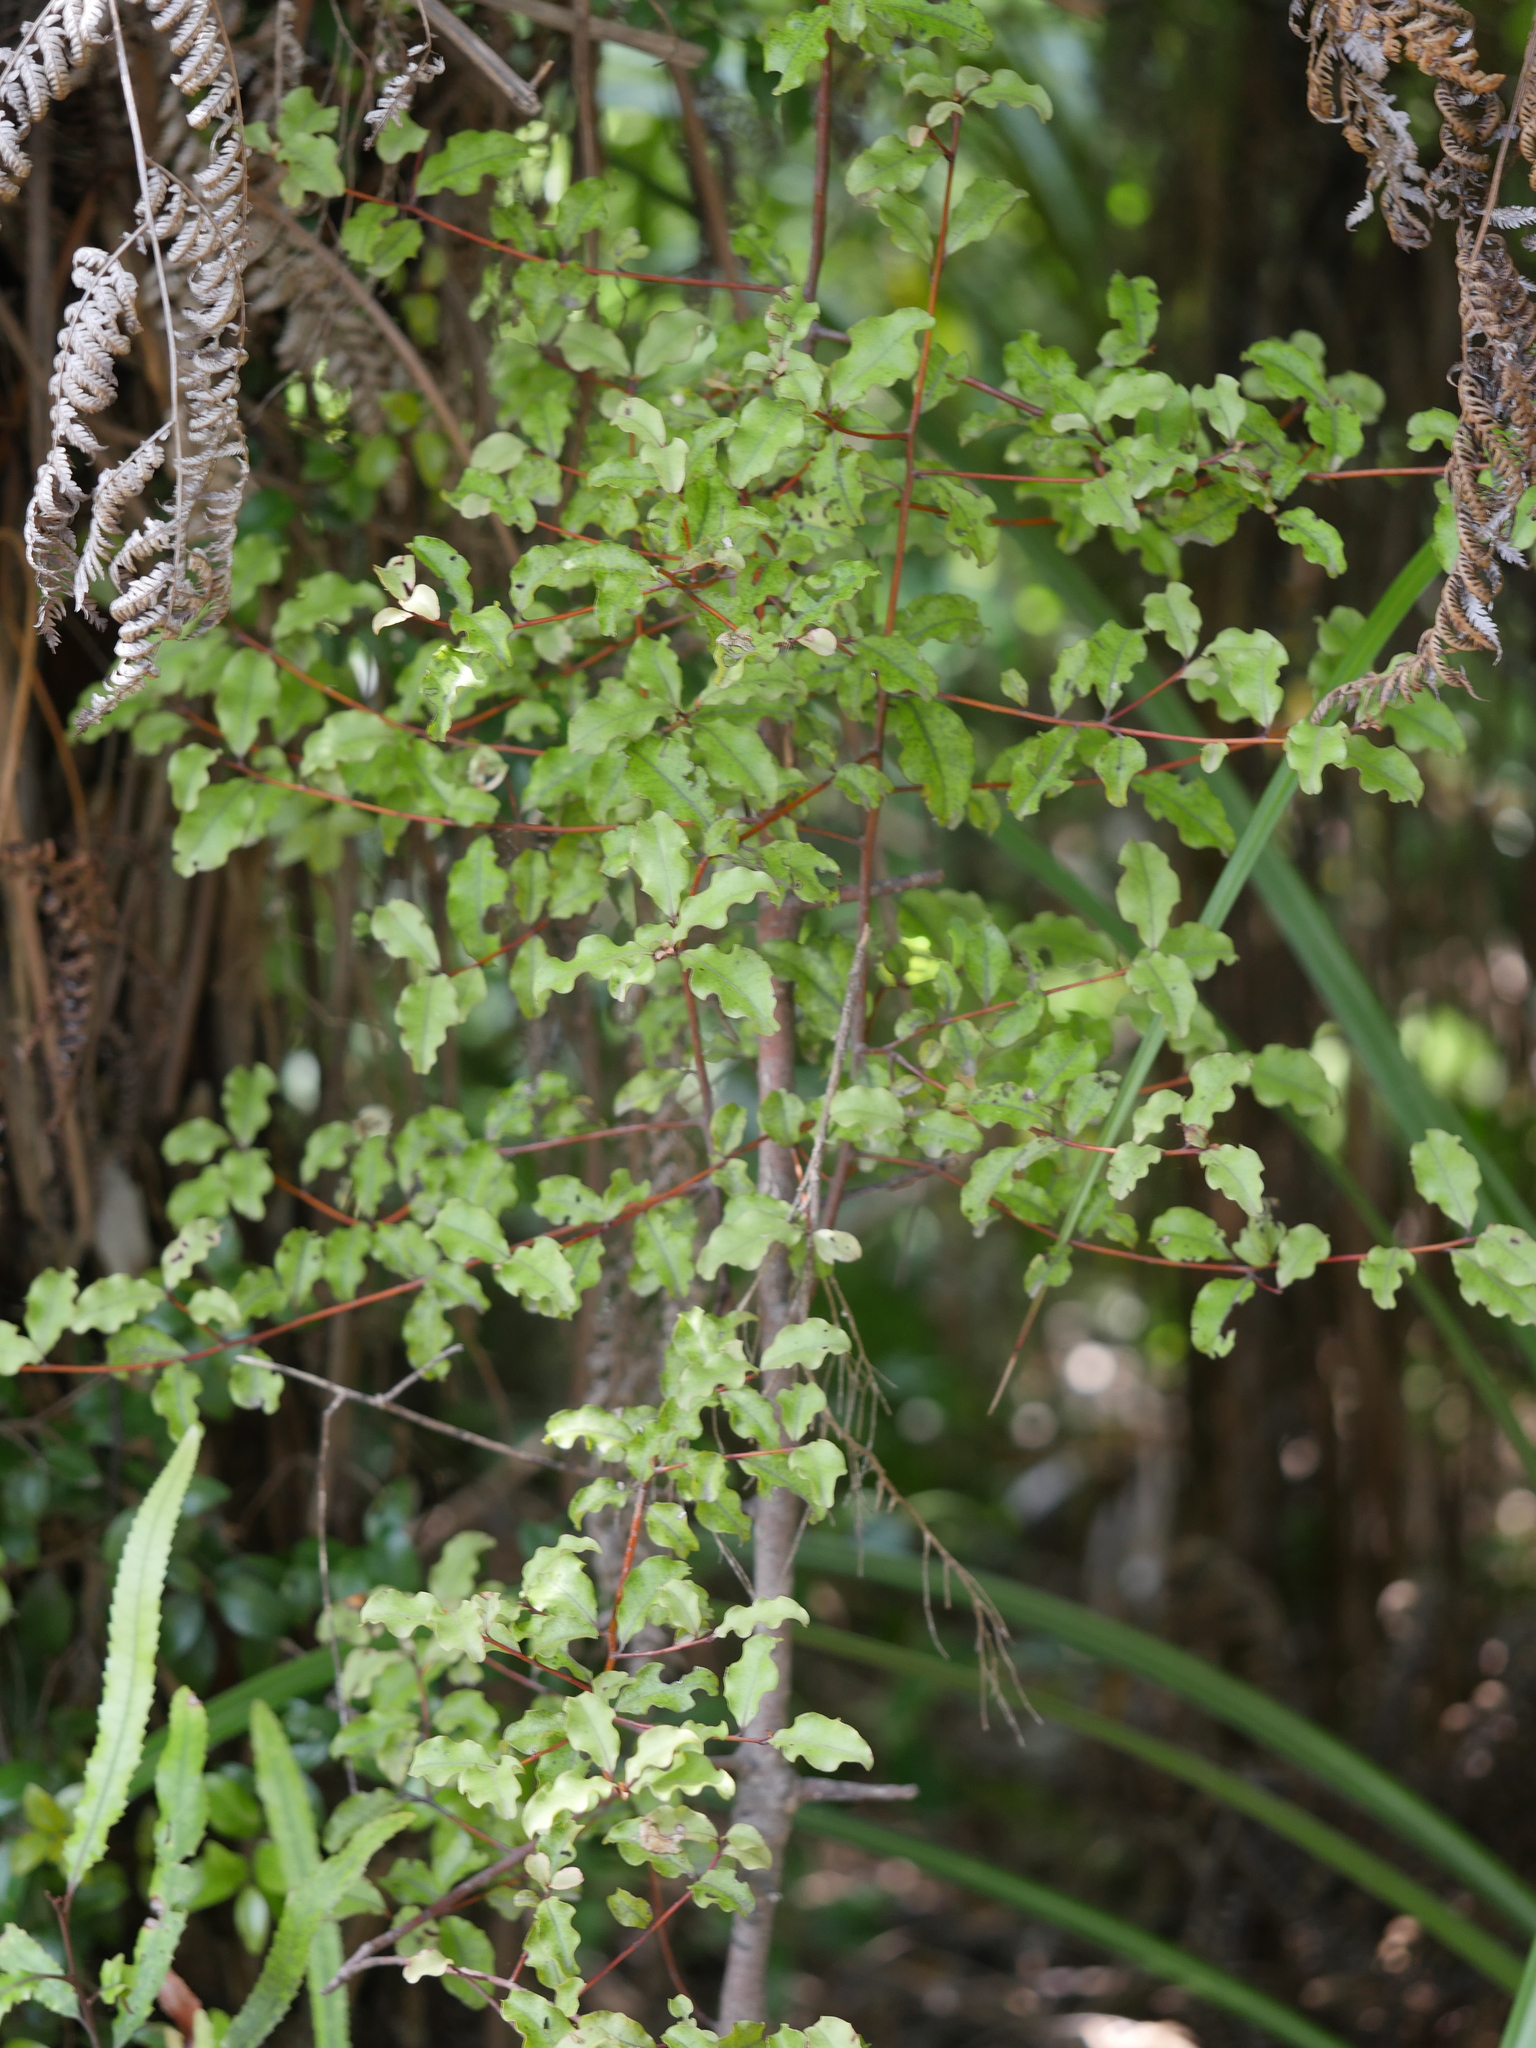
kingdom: Plantae
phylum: Tracheophyta
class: Magnoliopsida
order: Ericales
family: Primulaceae
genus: Myrsine
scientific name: Myrsine australis
